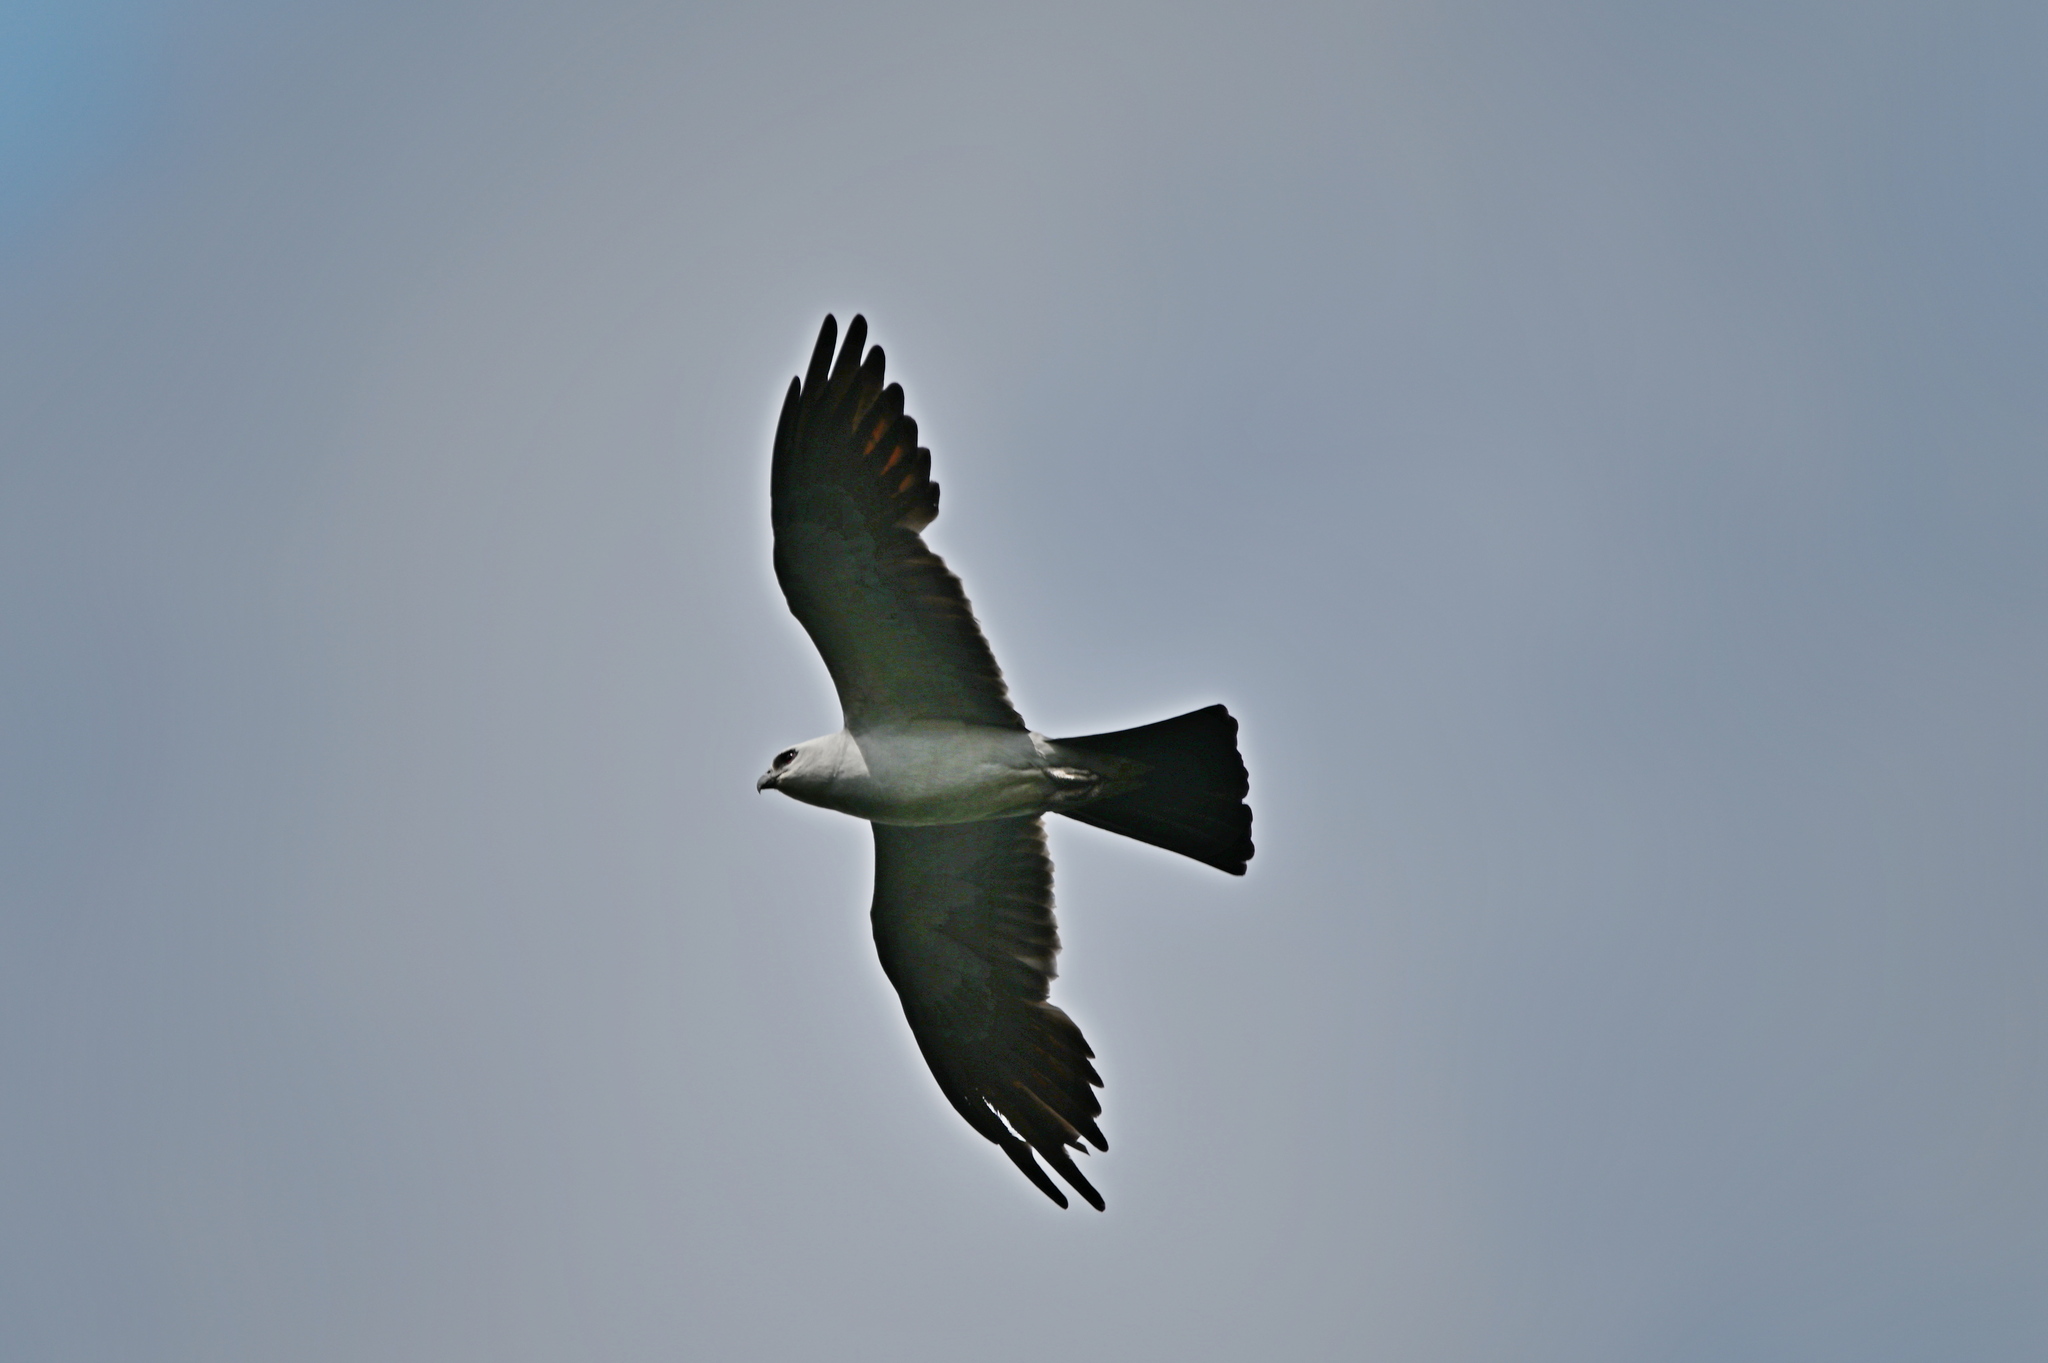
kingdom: Animalia
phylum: Chordata
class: Aves
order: Accipitriformes
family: Accipitridae
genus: Ictinia
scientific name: Ictinia mississippiensis
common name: Mississippi kite
